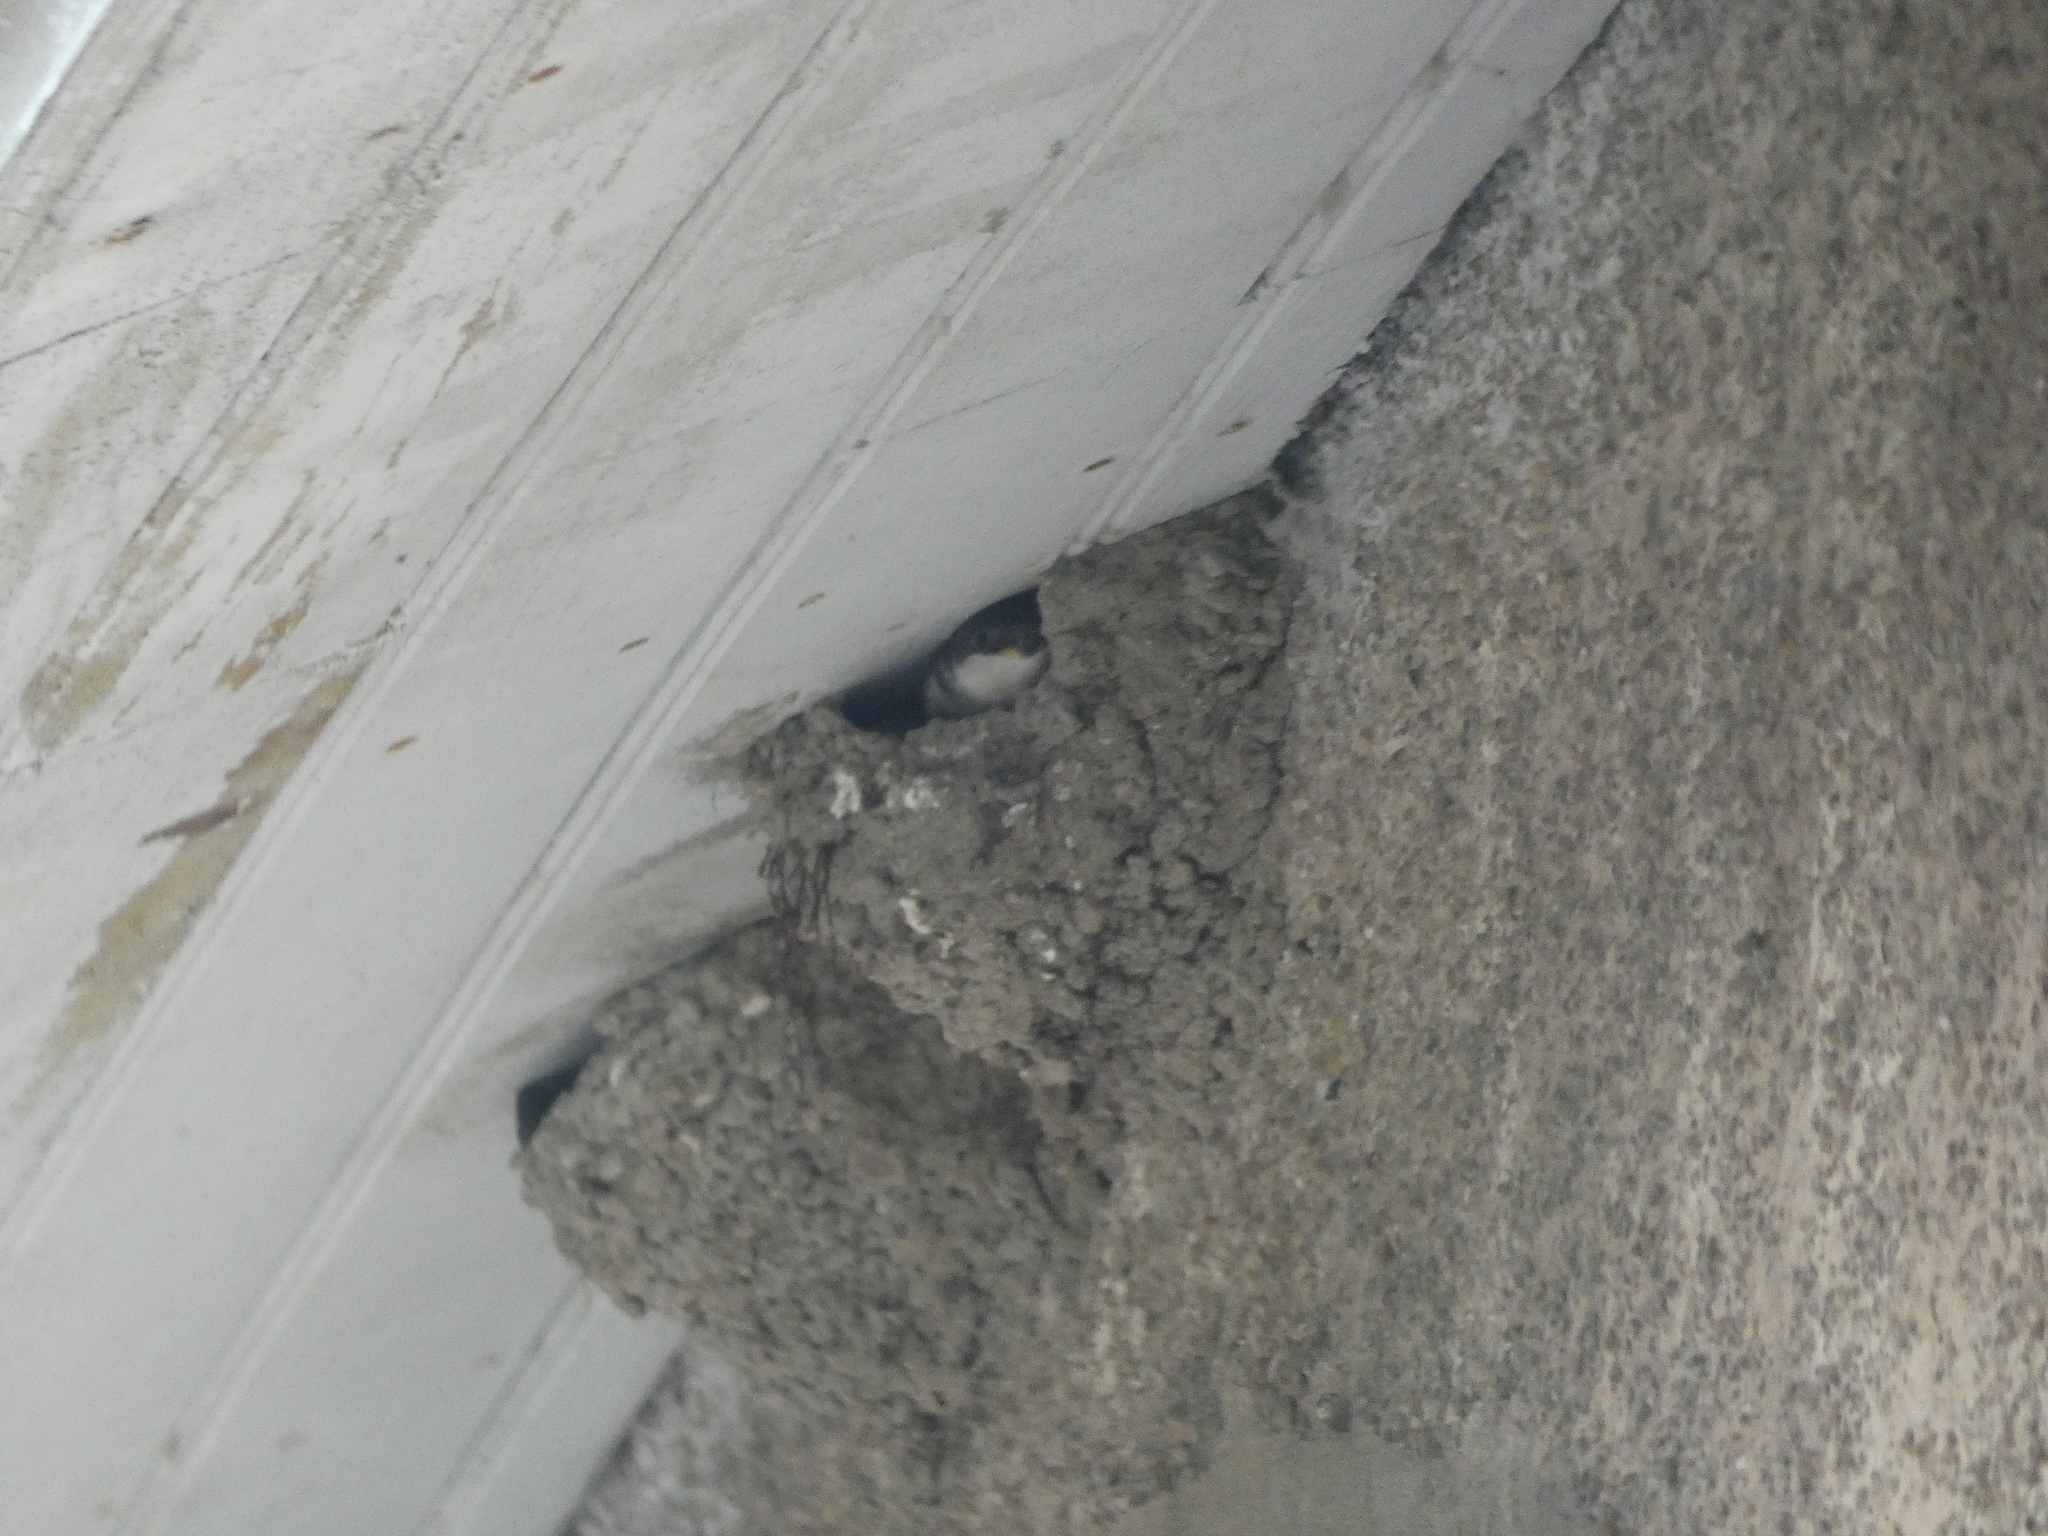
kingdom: Animalia
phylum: Chordata
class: Aves
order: Passeriformes
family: Hirundinidae
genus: Delichon
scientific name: Delichon urbicum
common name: Common house martin
